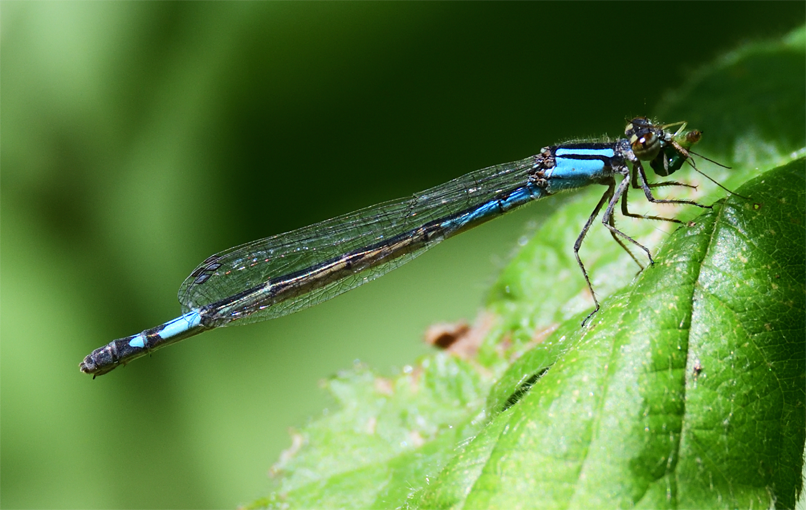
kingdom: Animalia
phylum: Arthropoda
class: Insecta
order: Odonata
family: Coenagrionidae
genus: Enallagma
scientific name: Enallagma aspersum
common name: Azure bluet
